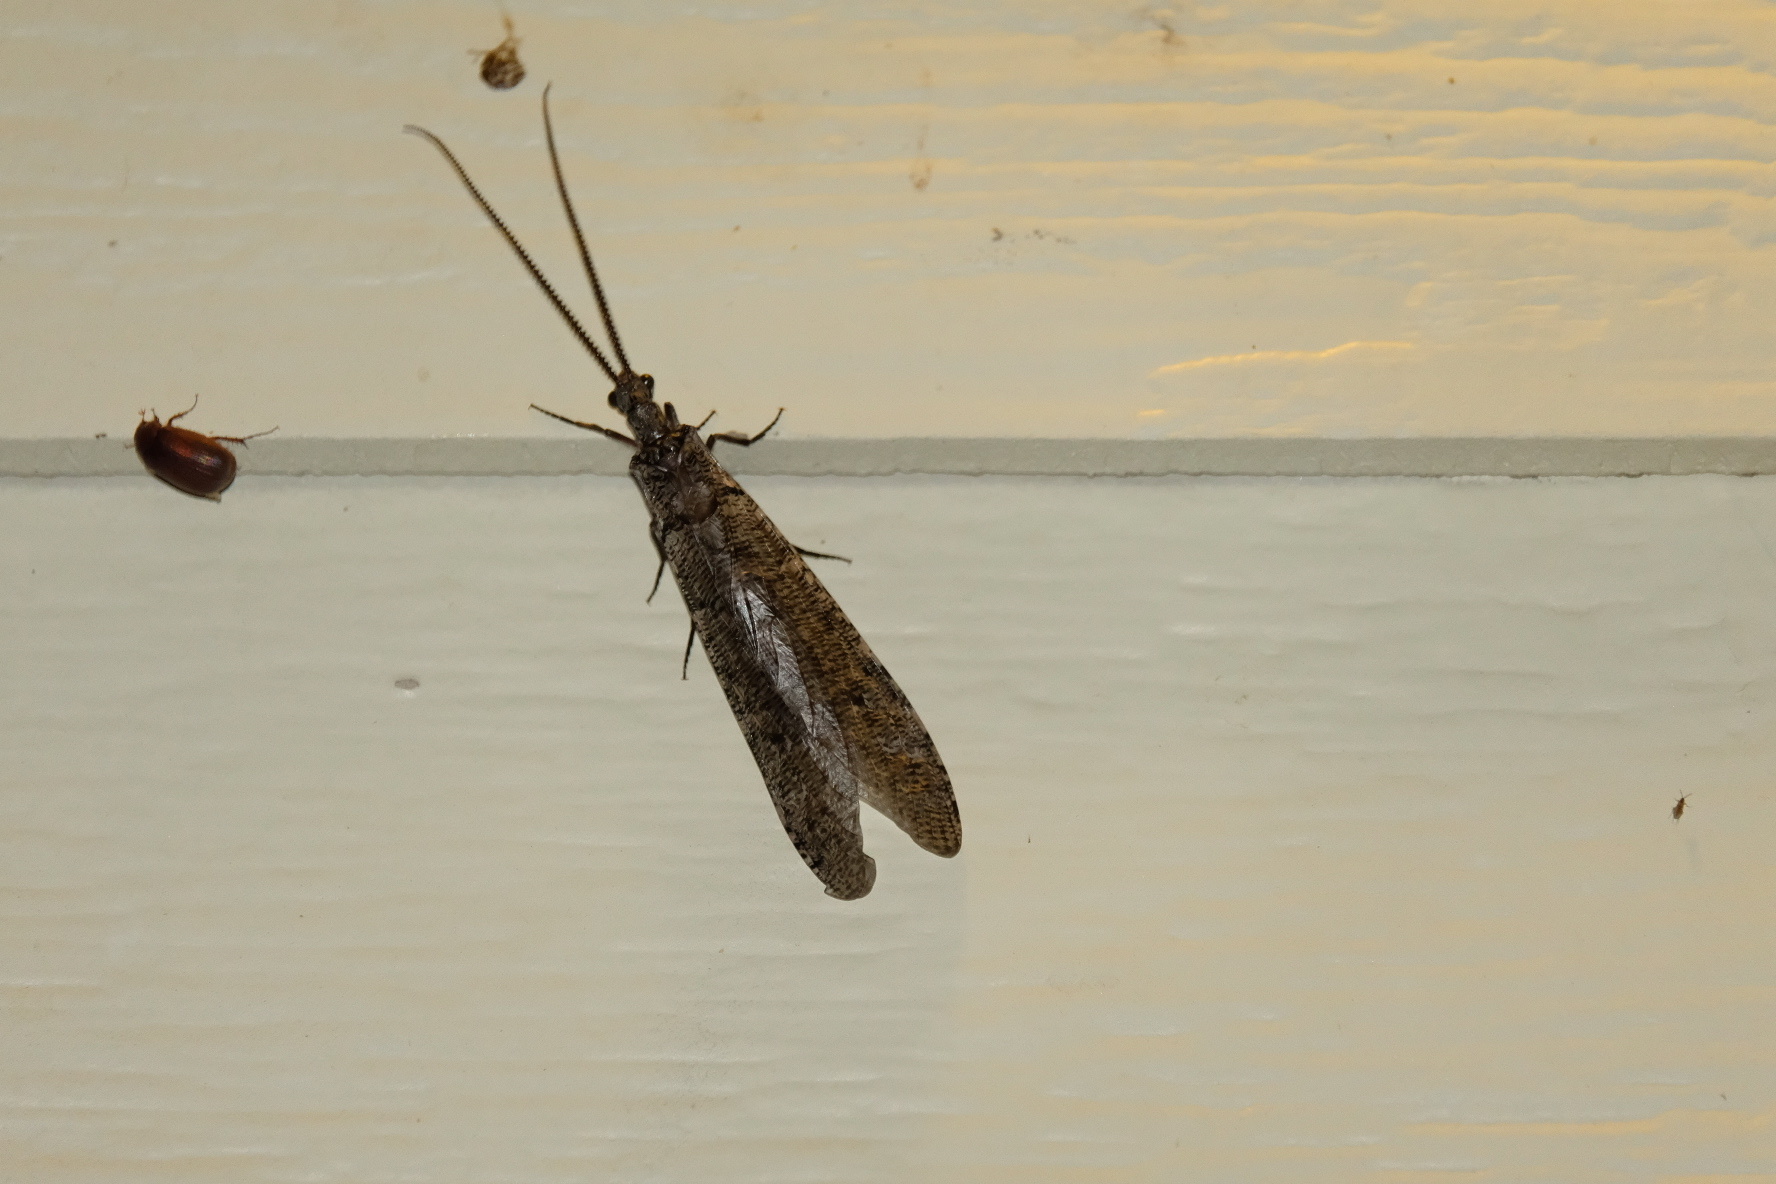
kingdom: Animalia
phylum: Arthropoda
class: Insecta
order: Megaloptera
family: Corydalidae
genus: Neohermes
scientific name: Neohermes filicornis
